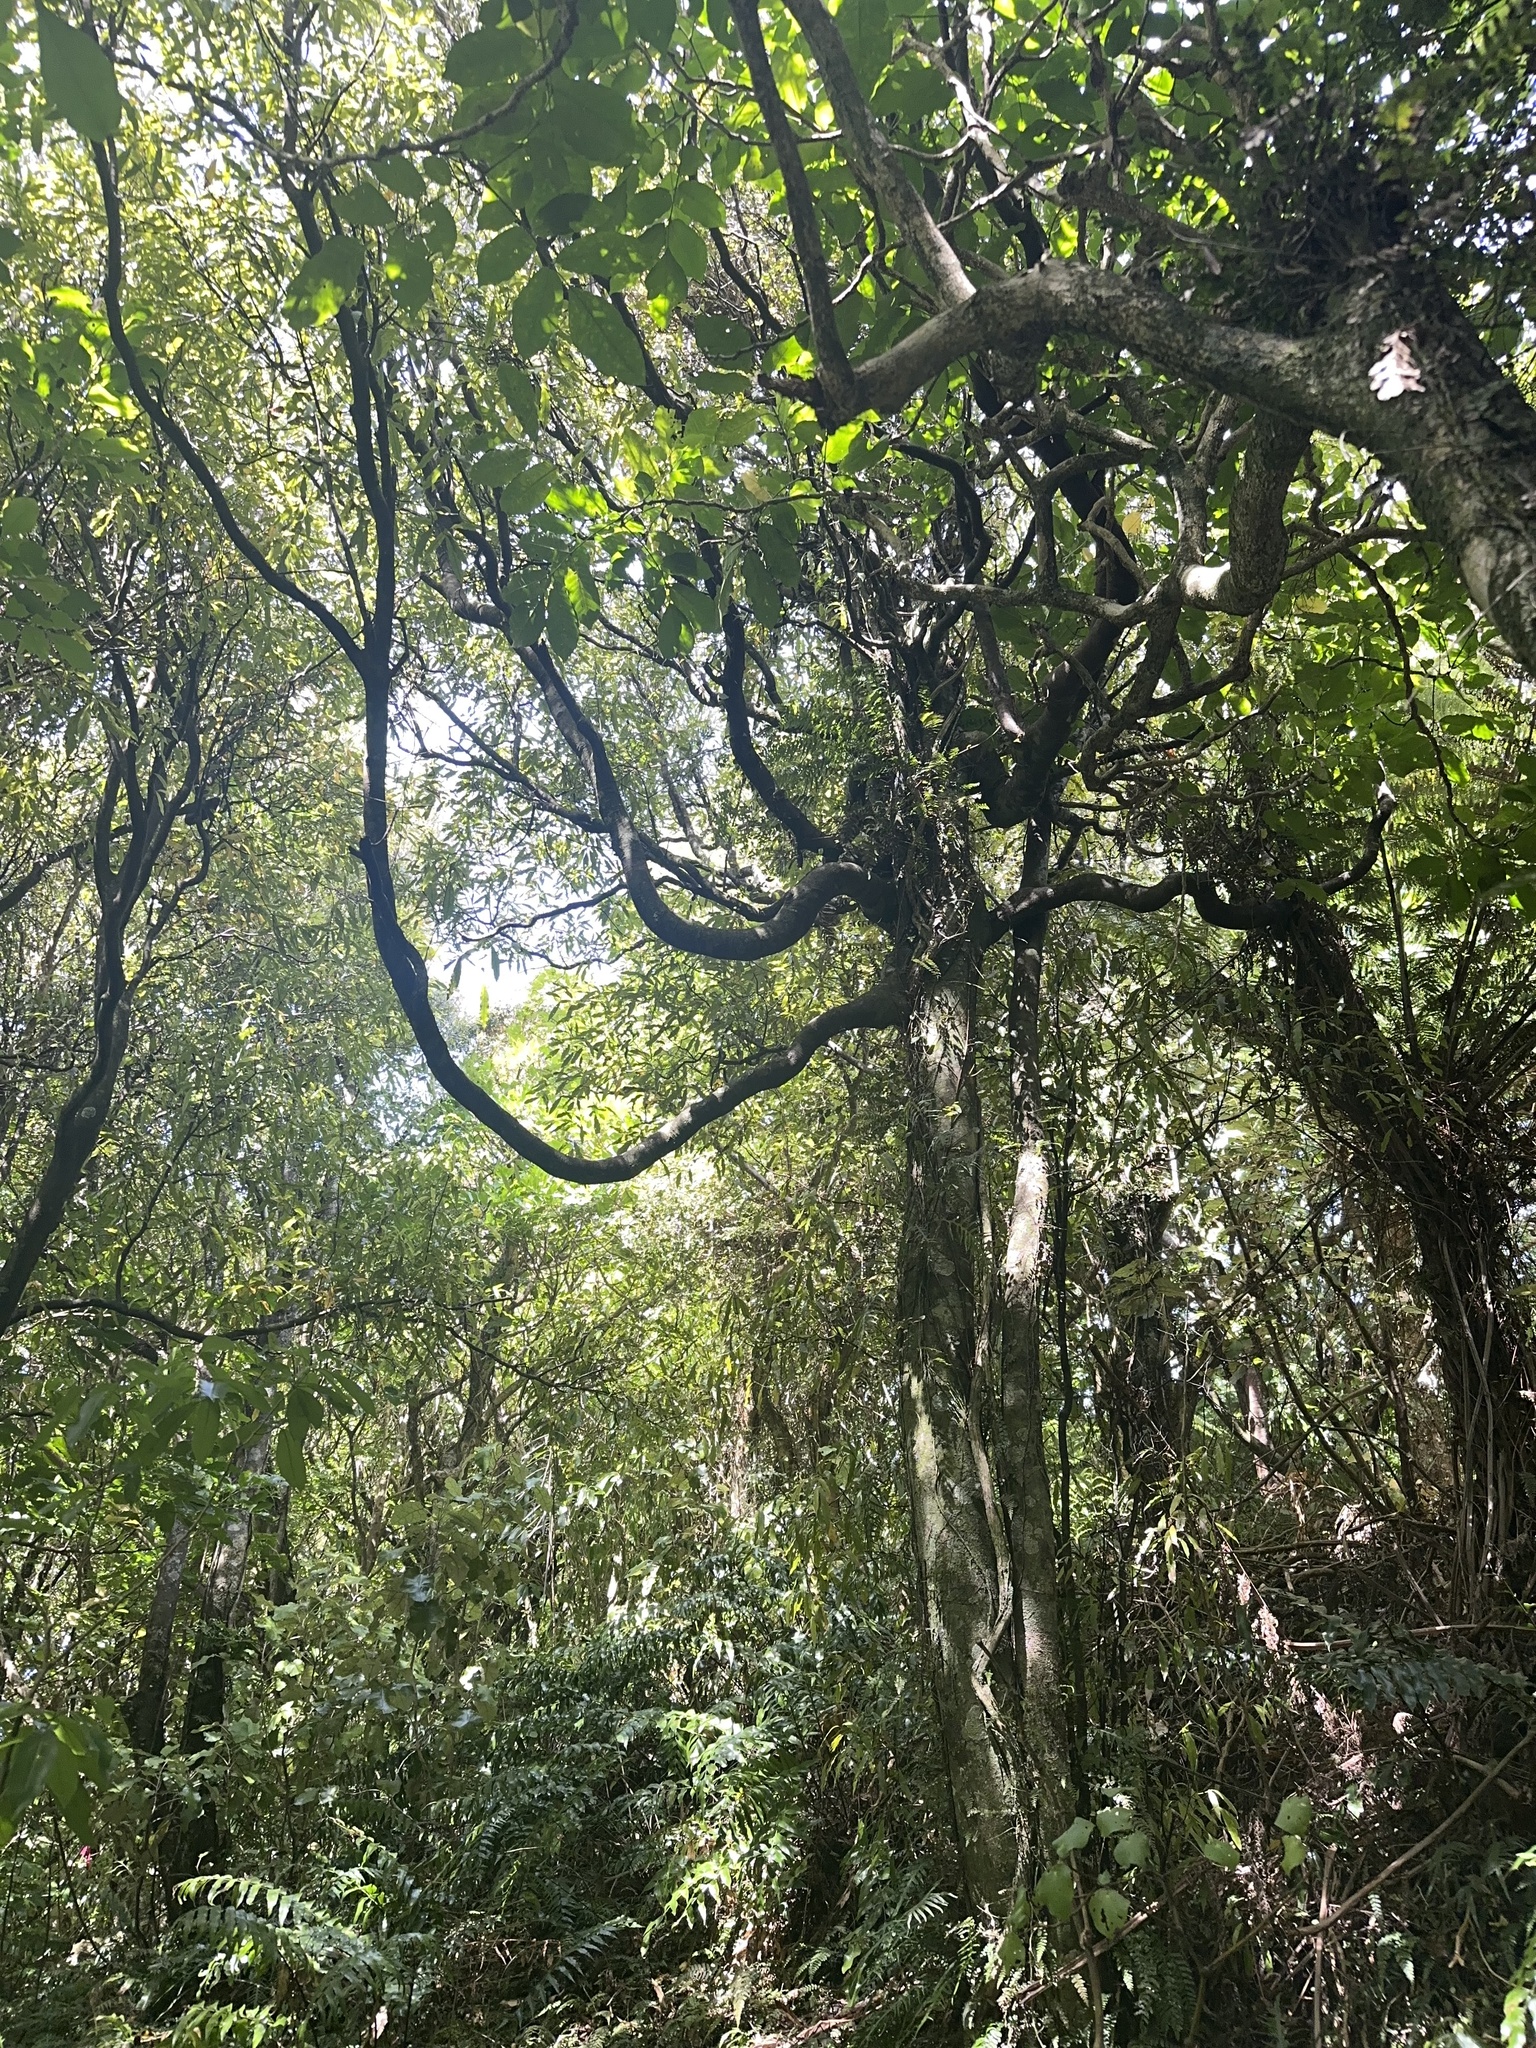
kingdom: Plantae
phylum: Tracheophyta
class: Magnoliopsida
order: Laurales
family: Lauraceae
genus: Beilschmiedia
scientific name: Beilschmiedia tawa
